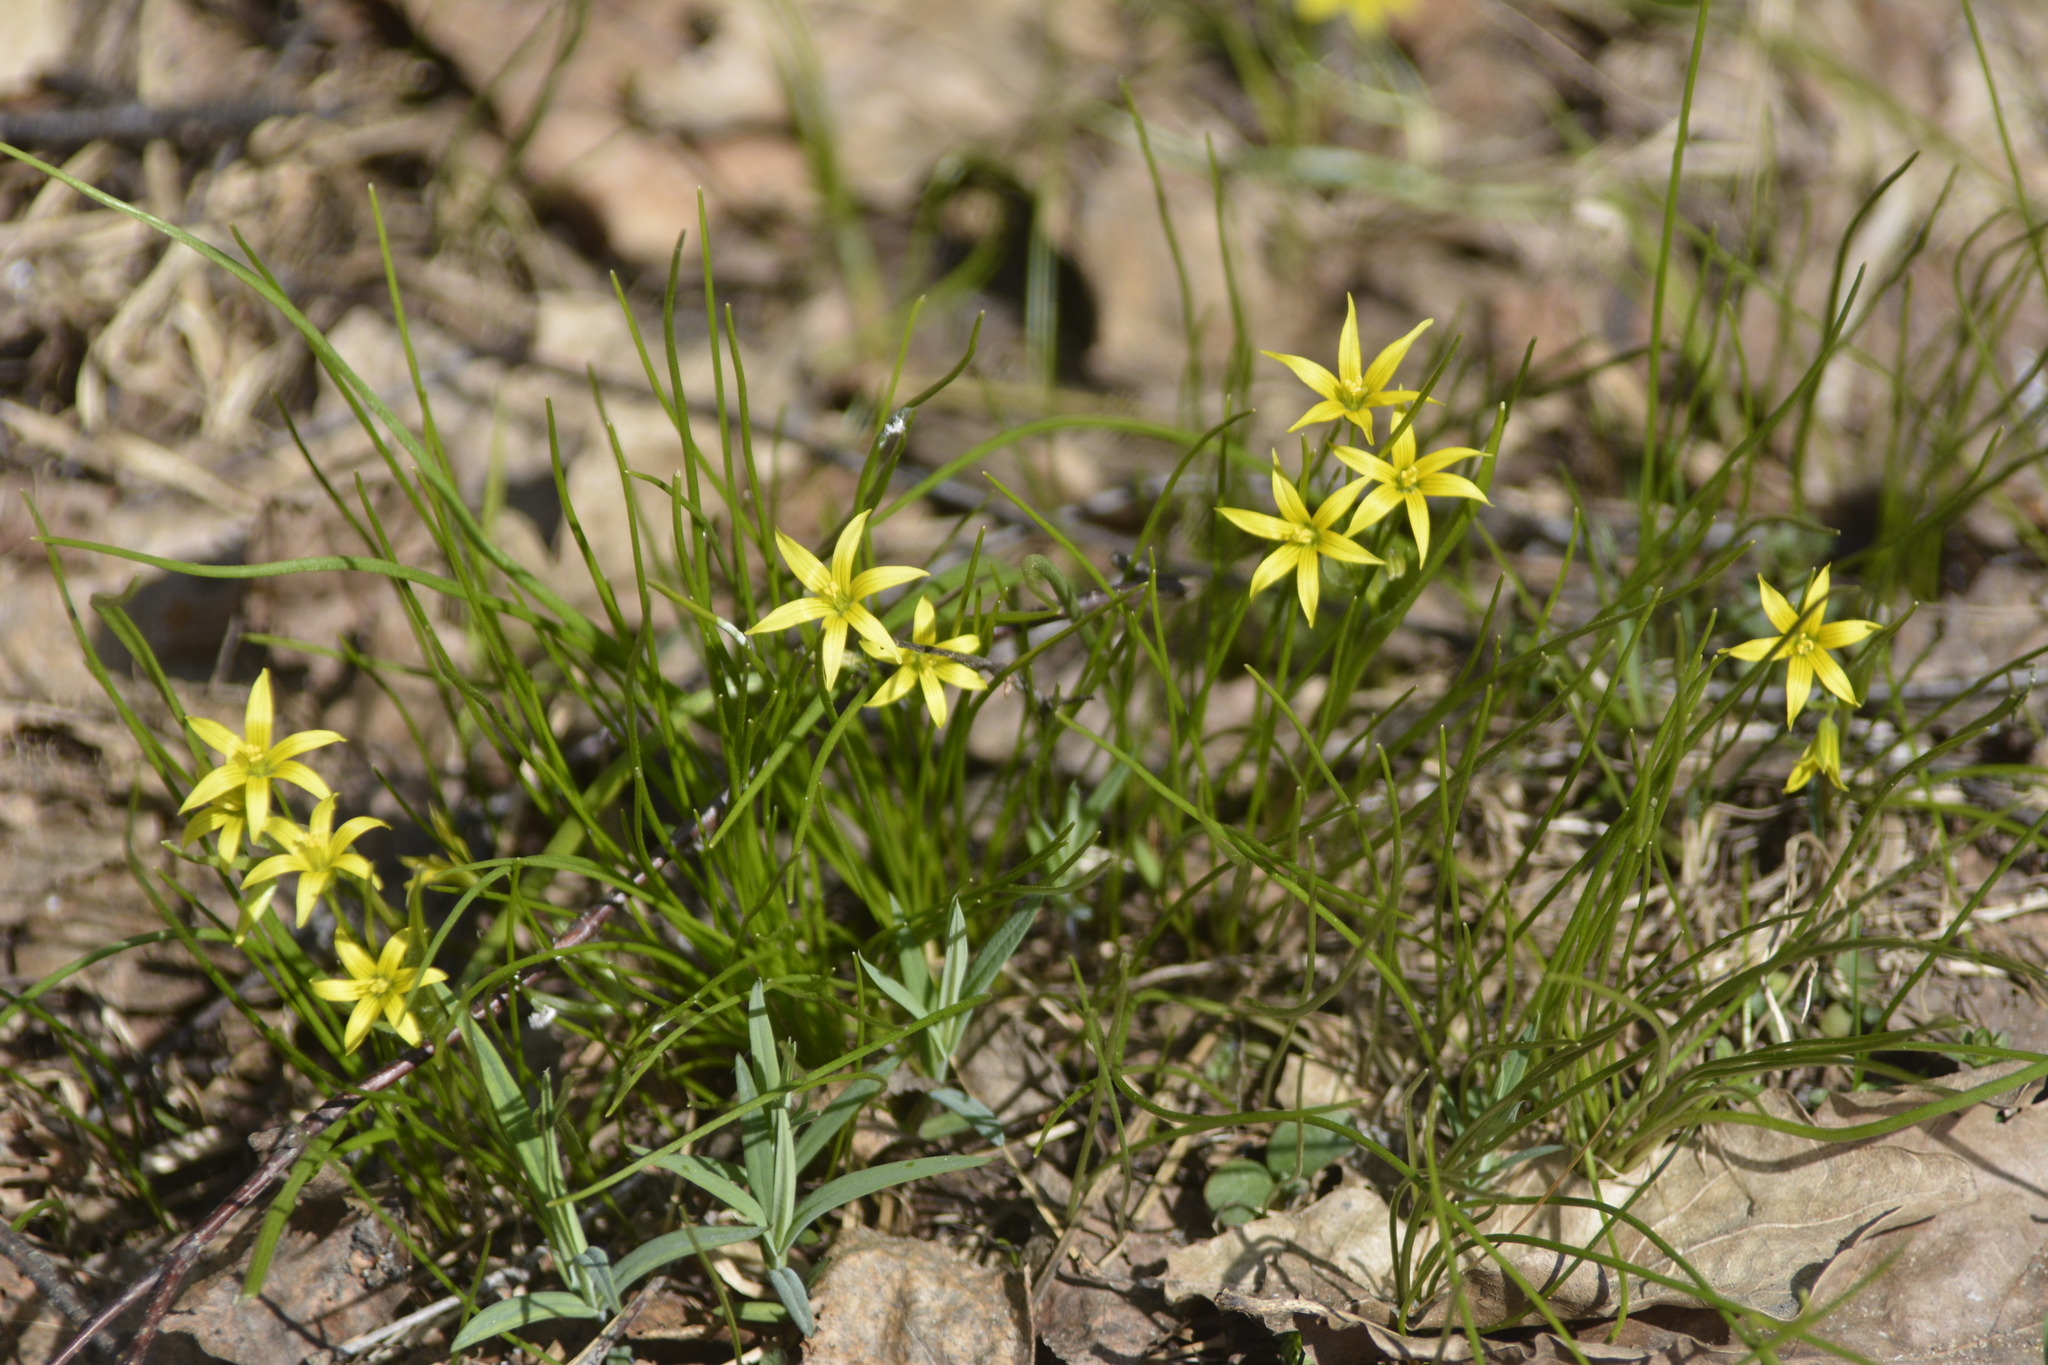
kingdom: Plantae
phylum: Tracheophyta
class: Liliopsida
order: Liliales
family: Liliaceae
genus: Gagea
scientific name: Gagea minima
